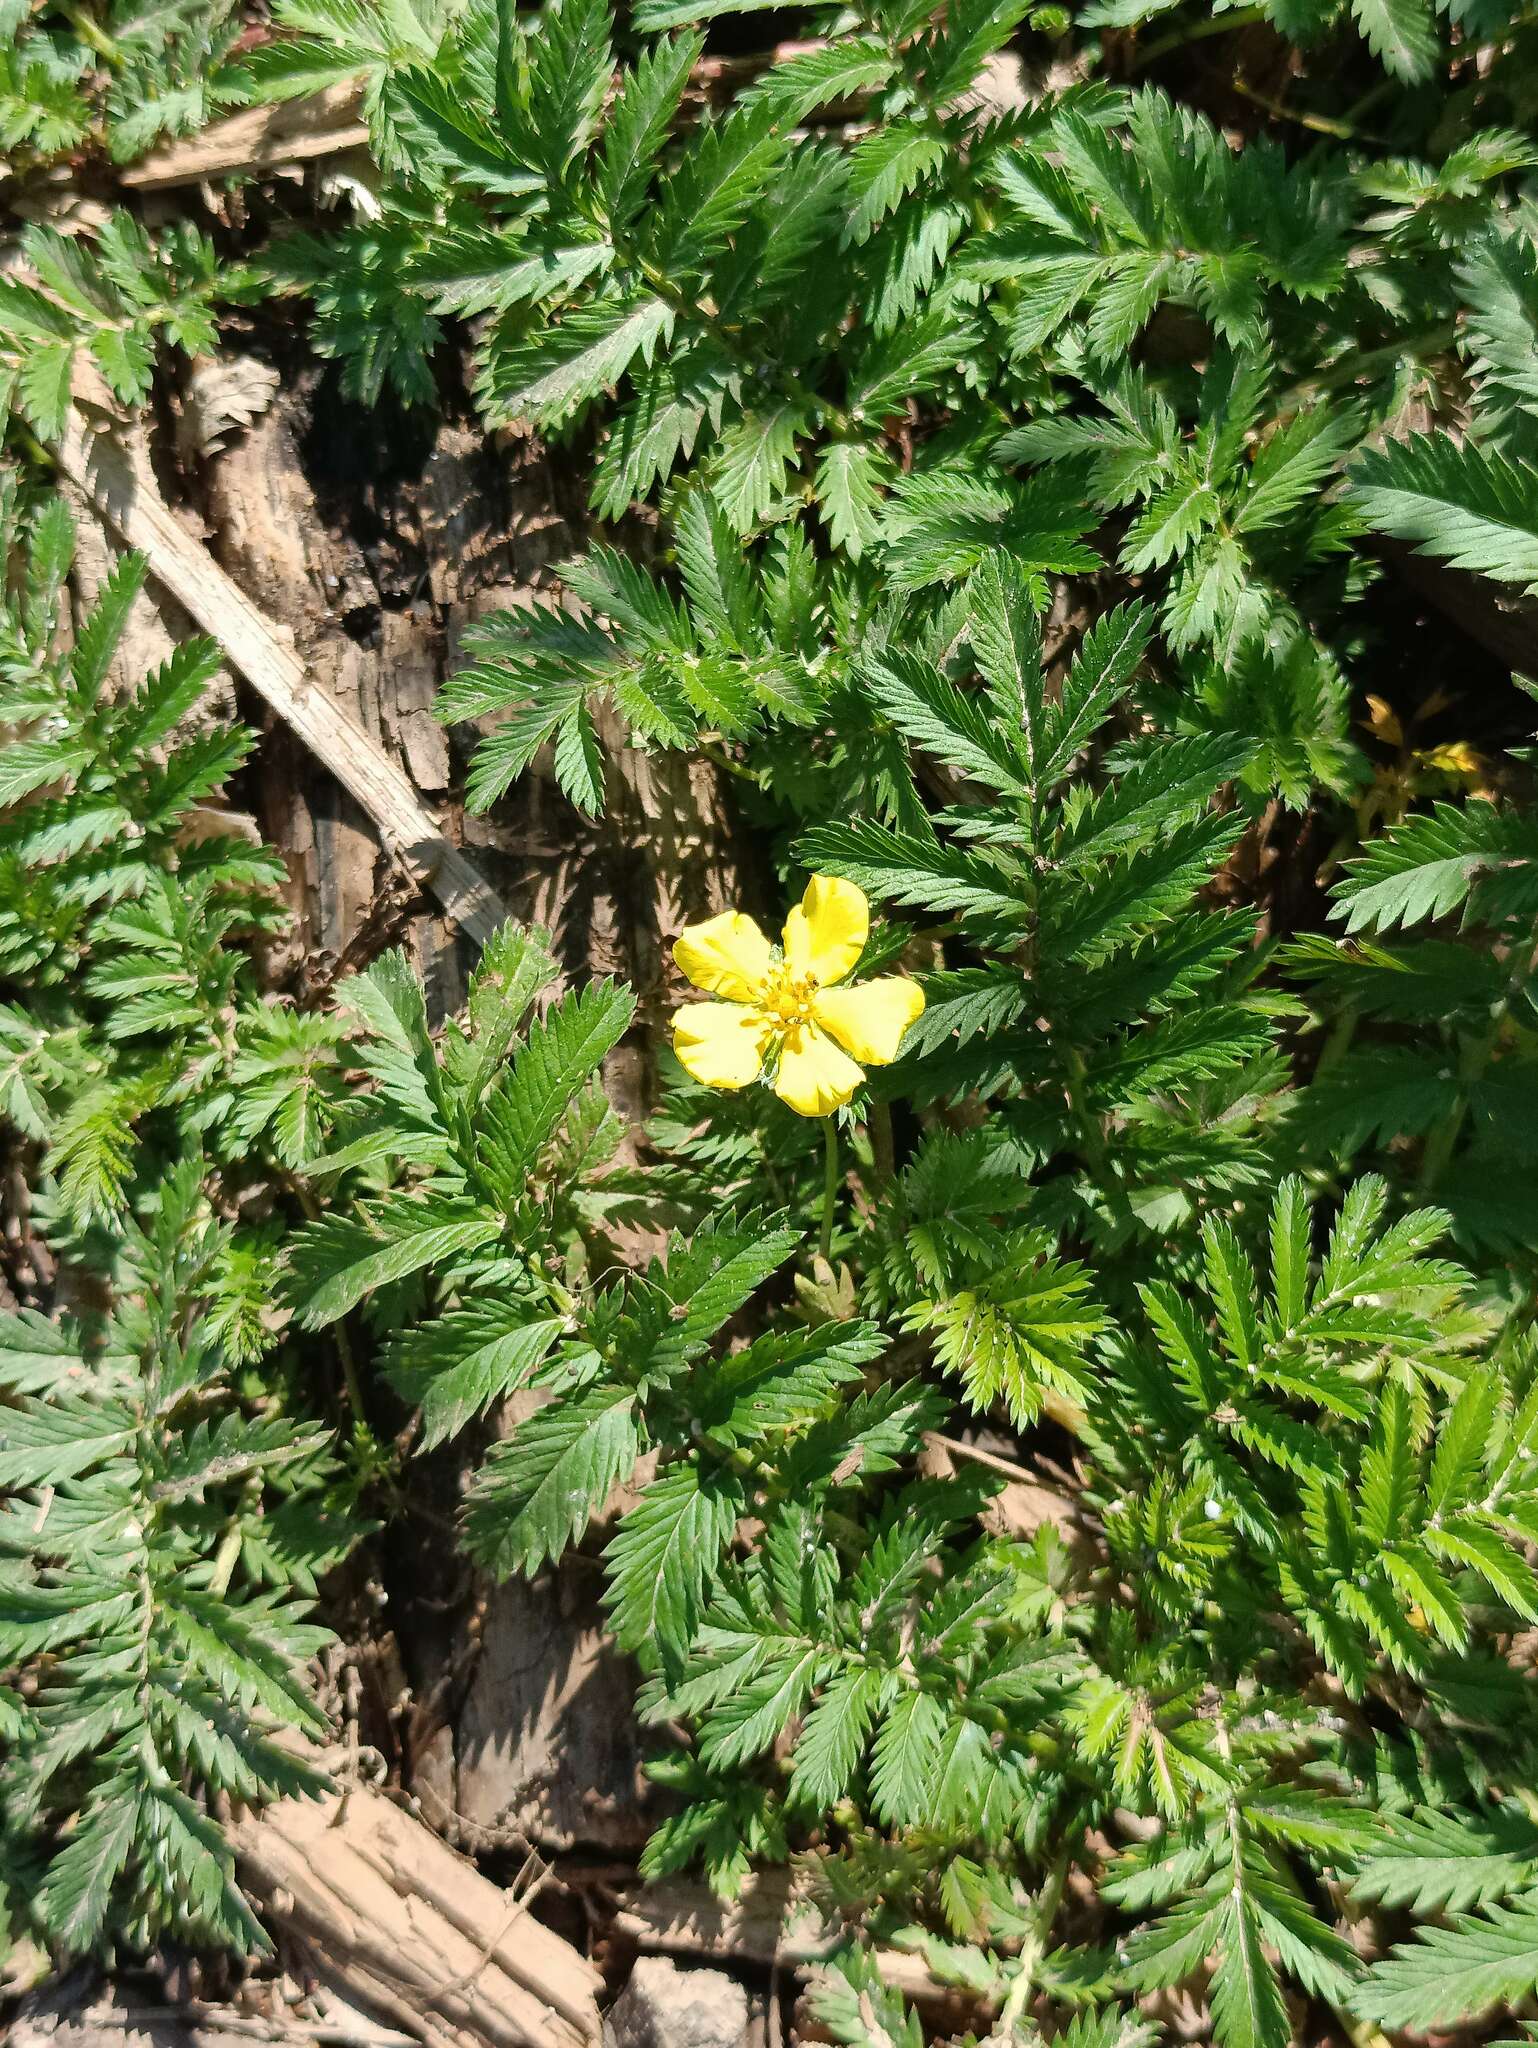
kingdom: Plantae
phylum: Tracheophyta
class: Magnoliopsida
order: Rosales
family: Rosaceae
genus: Argentina
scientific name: Argentina anserina
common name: Common silverweed
